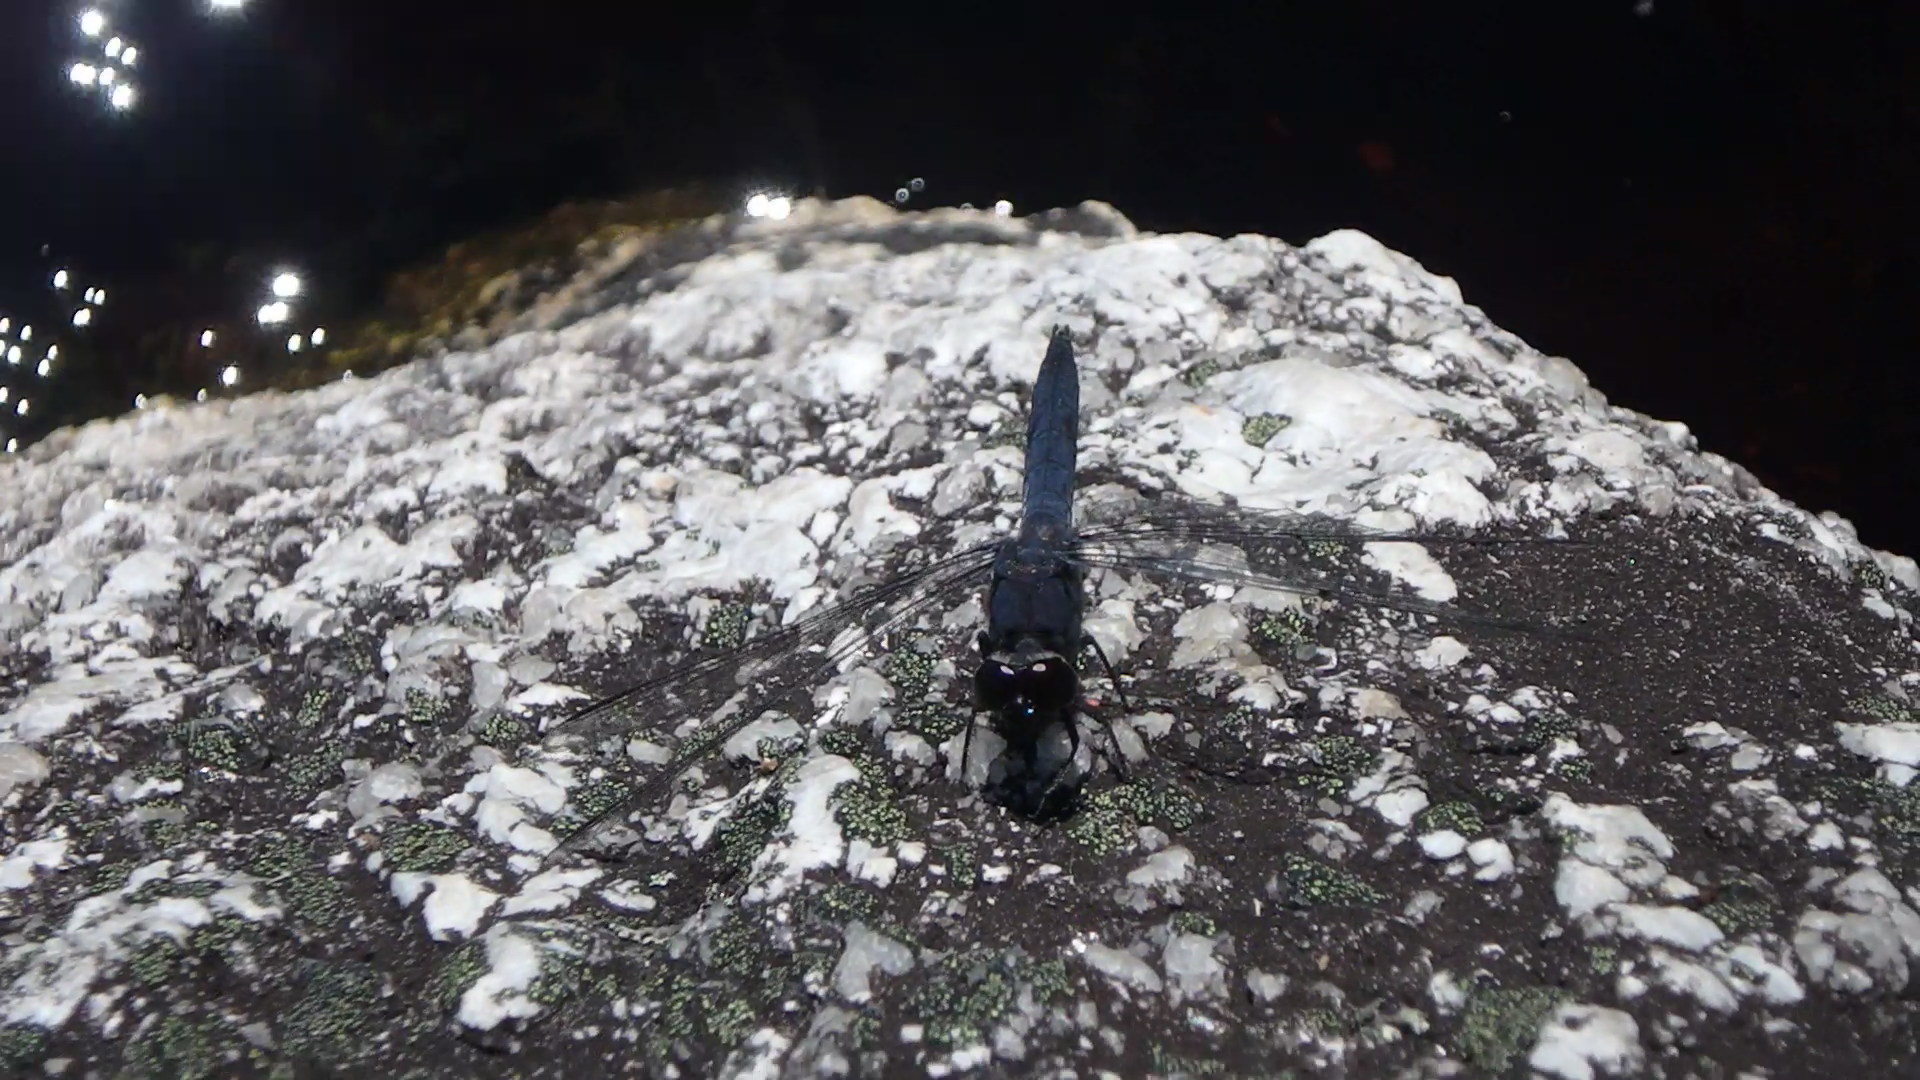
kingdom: Animalia
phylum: Arthropoda
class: Insecta
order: Odonata
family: Libellulidae
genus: Libellula
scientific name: Libellula incesta
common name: Slaty skimmer
